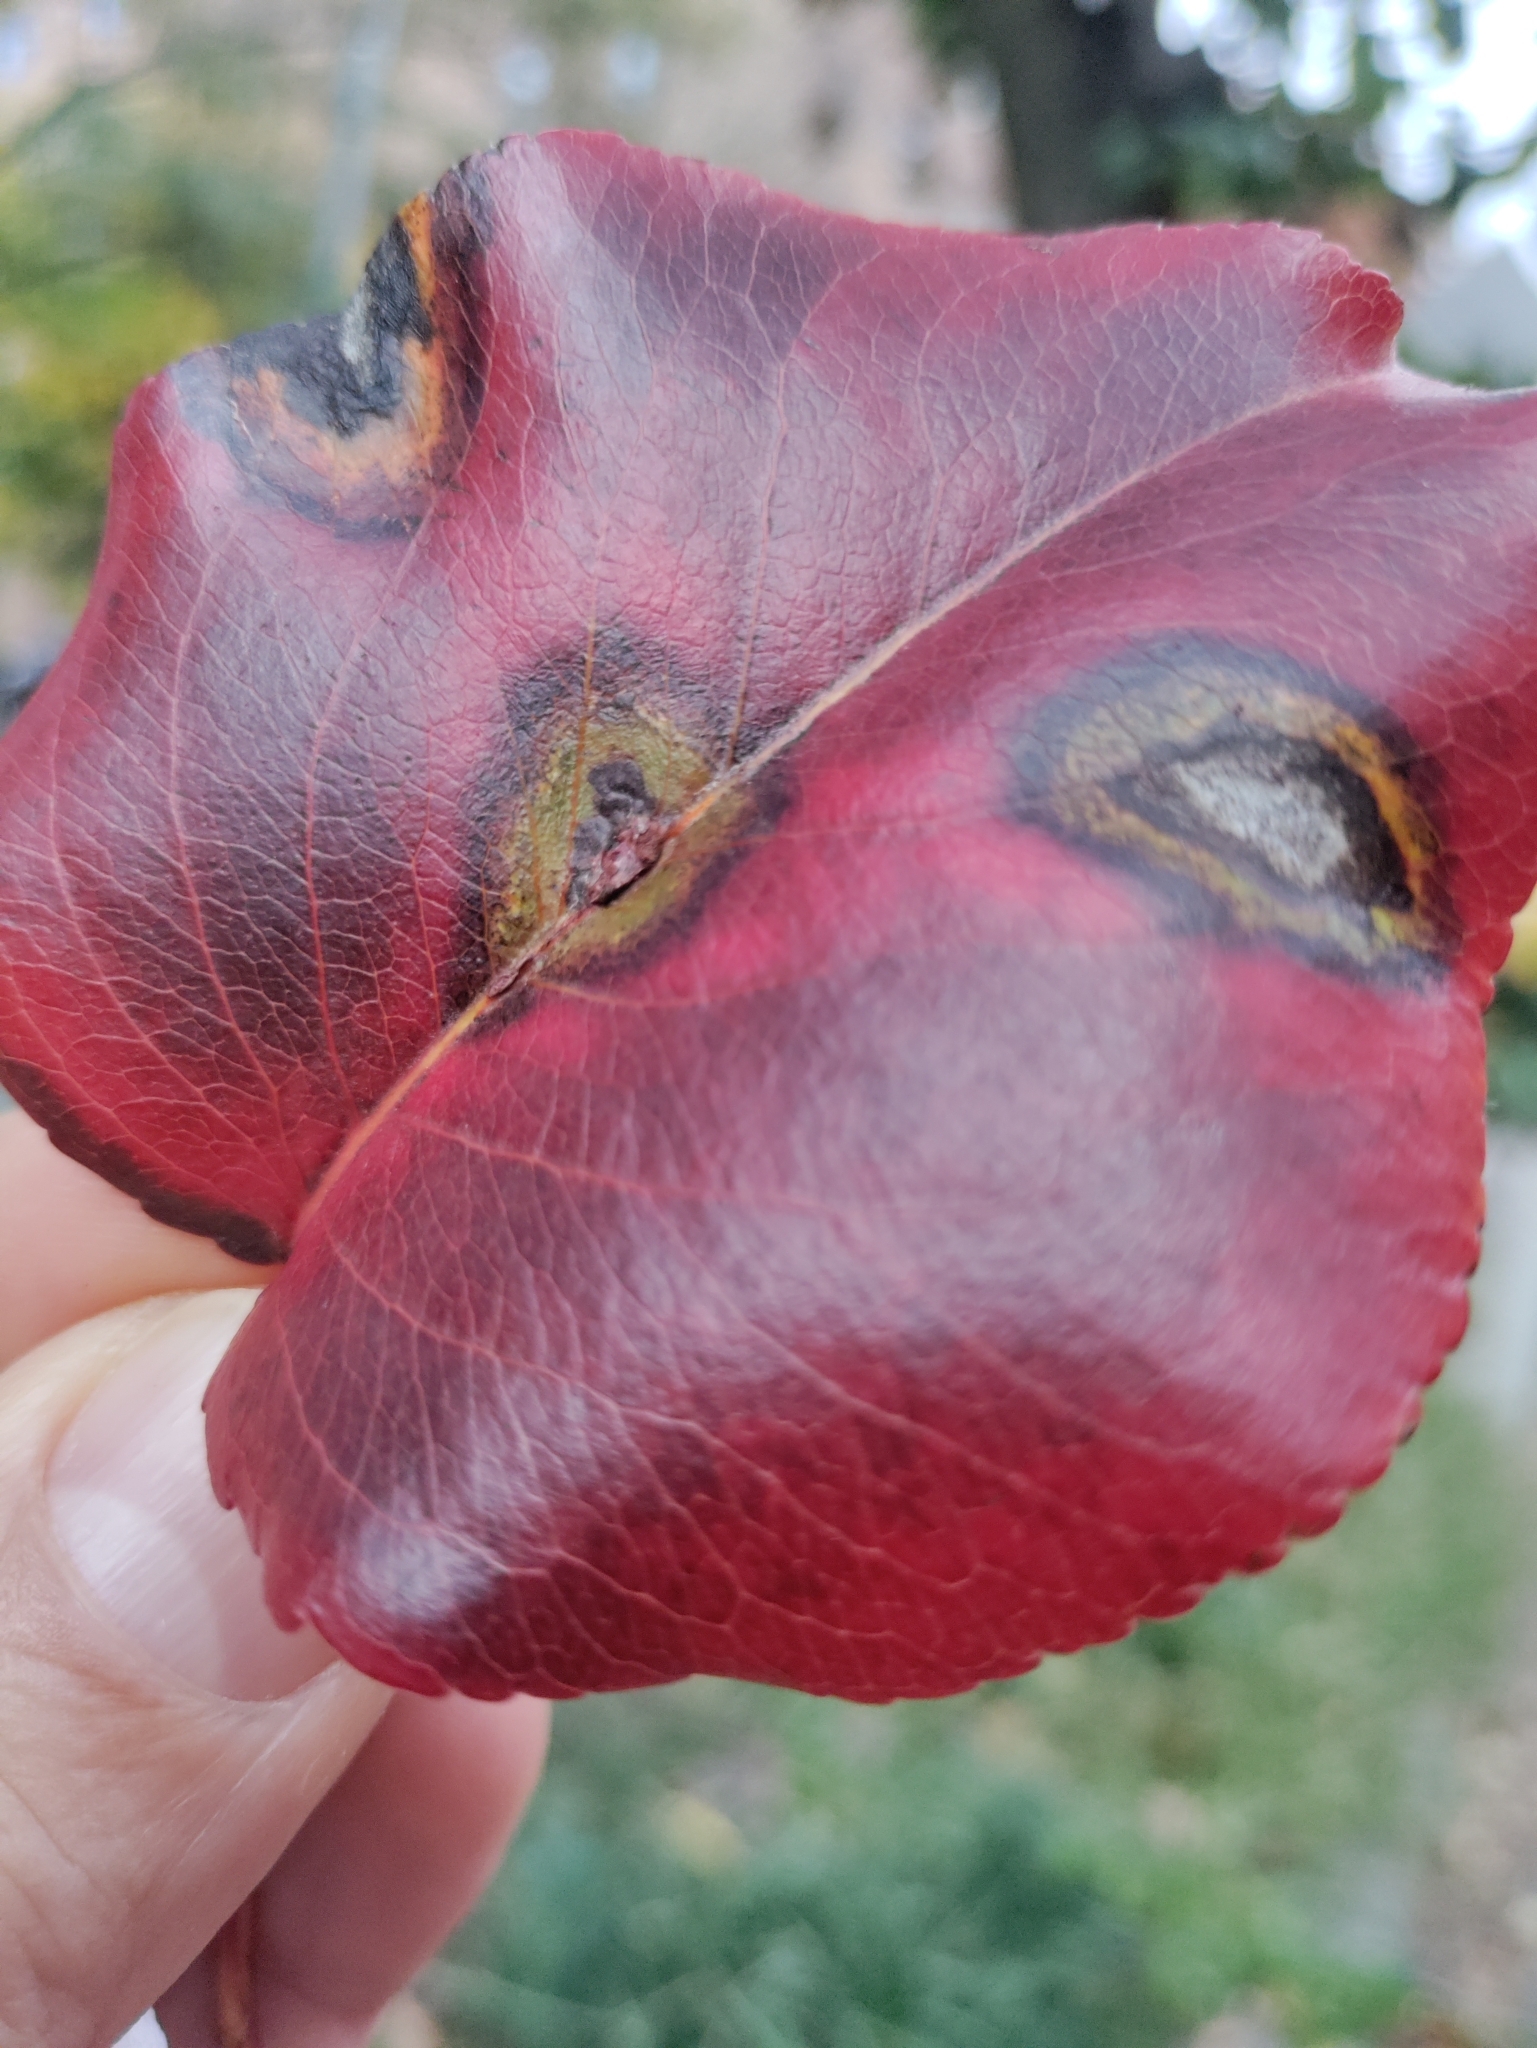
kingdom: Fungi
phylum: Basidiomycota
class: Pucciniomycetes
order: Pucciniales
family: Gymnosporangiaceae
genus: Gymnosporangium
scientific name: Gymnosporangium sabinae
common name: Pear trellis rust fungus
